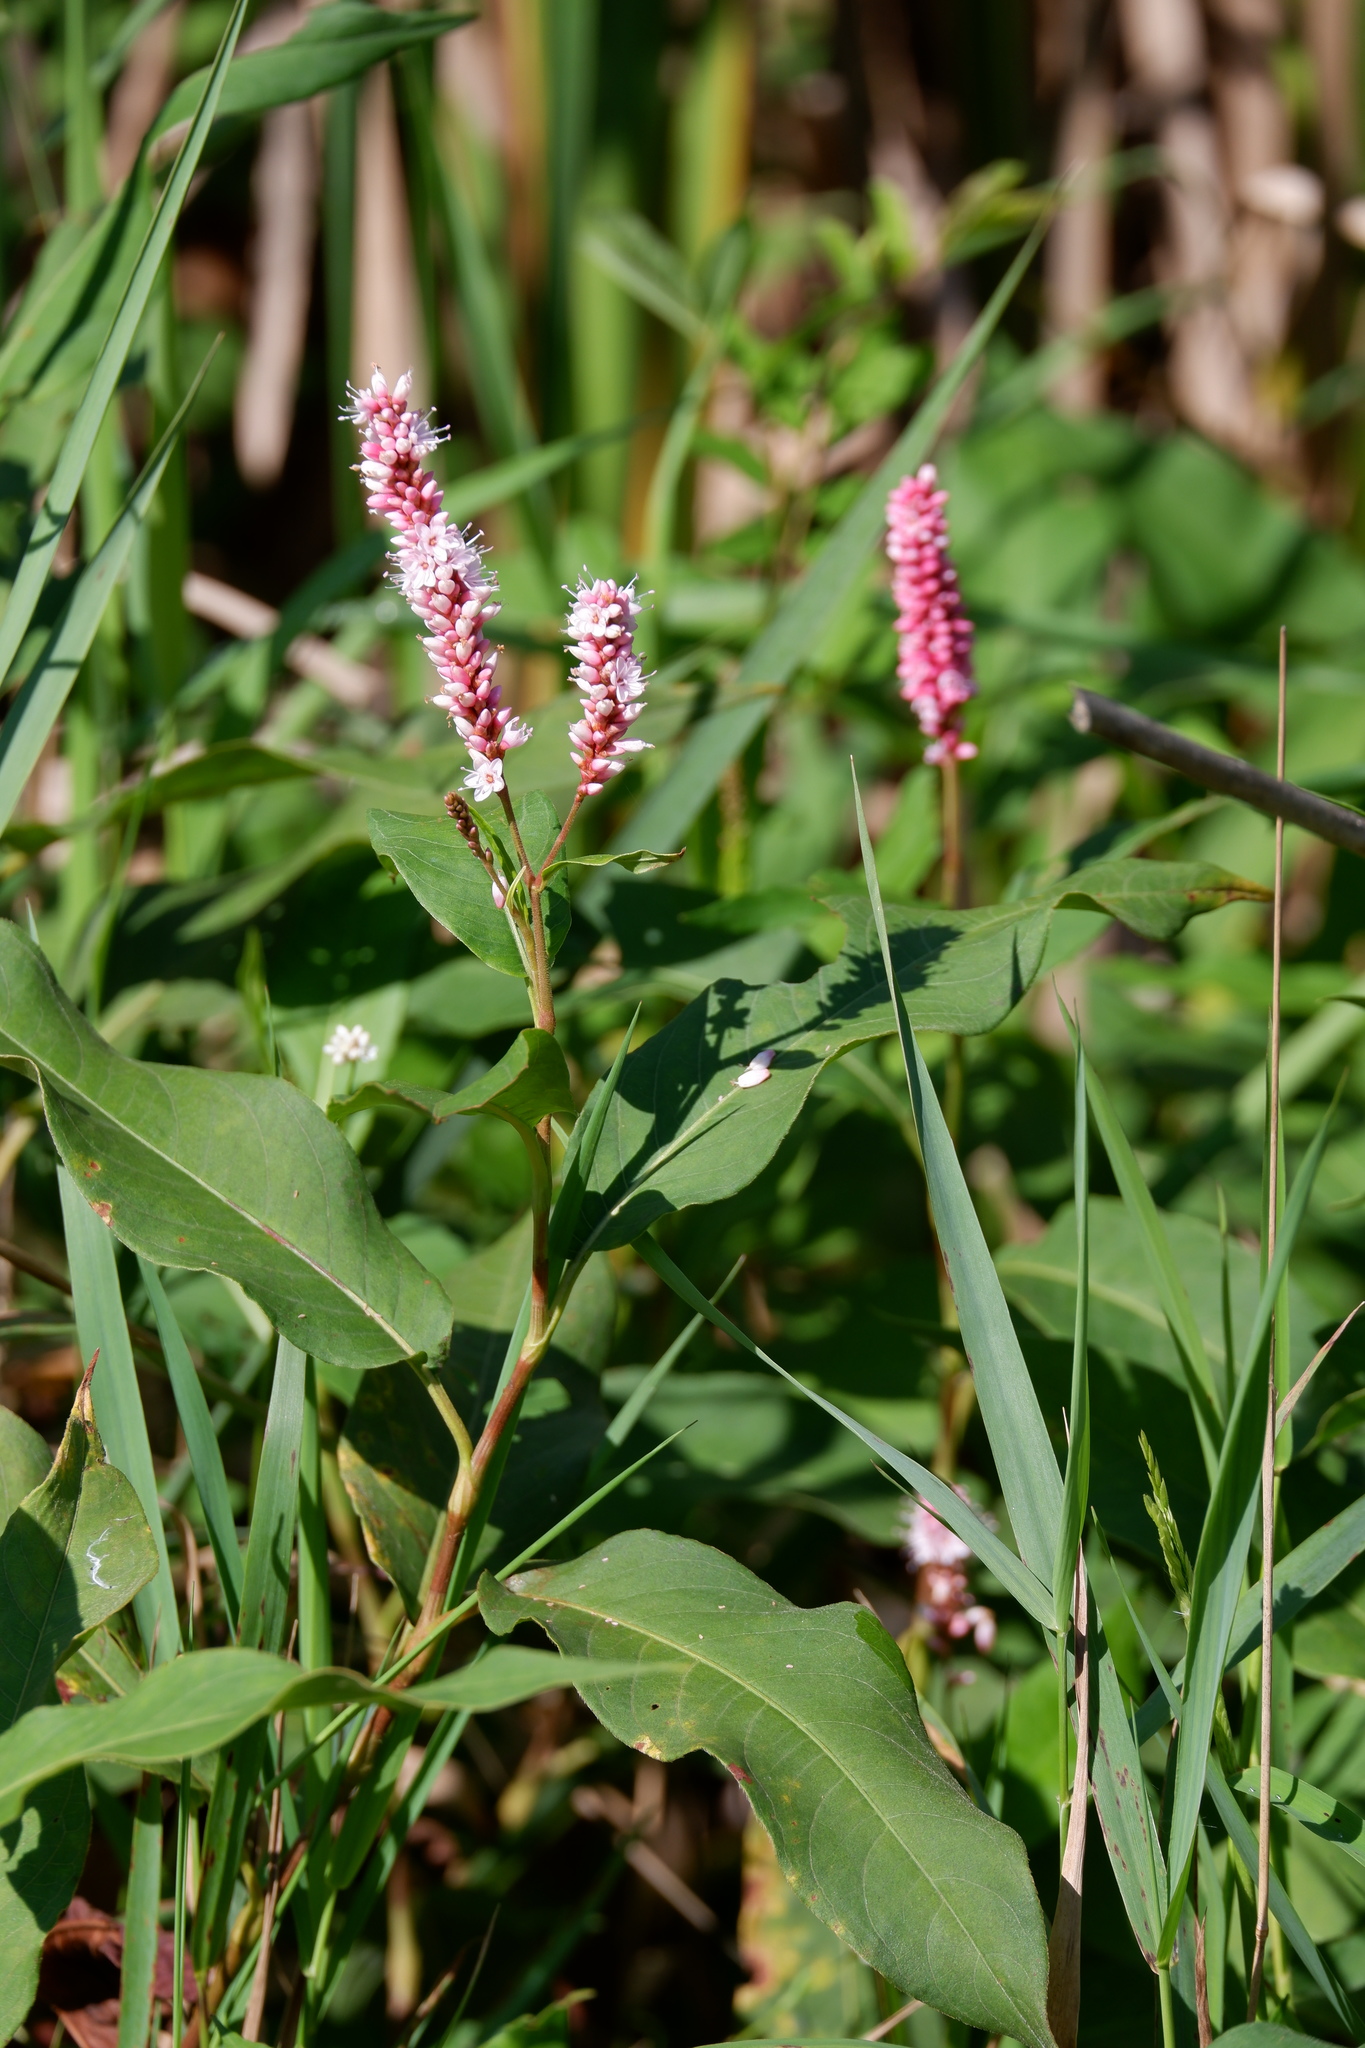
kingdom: Plantae
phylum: Tracheophyta
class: Magnoliopsida
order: Caryophyllales
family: Polygonaceae
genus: Persicaria
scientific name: Persicaria amphibia
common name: Amphibious bistort
